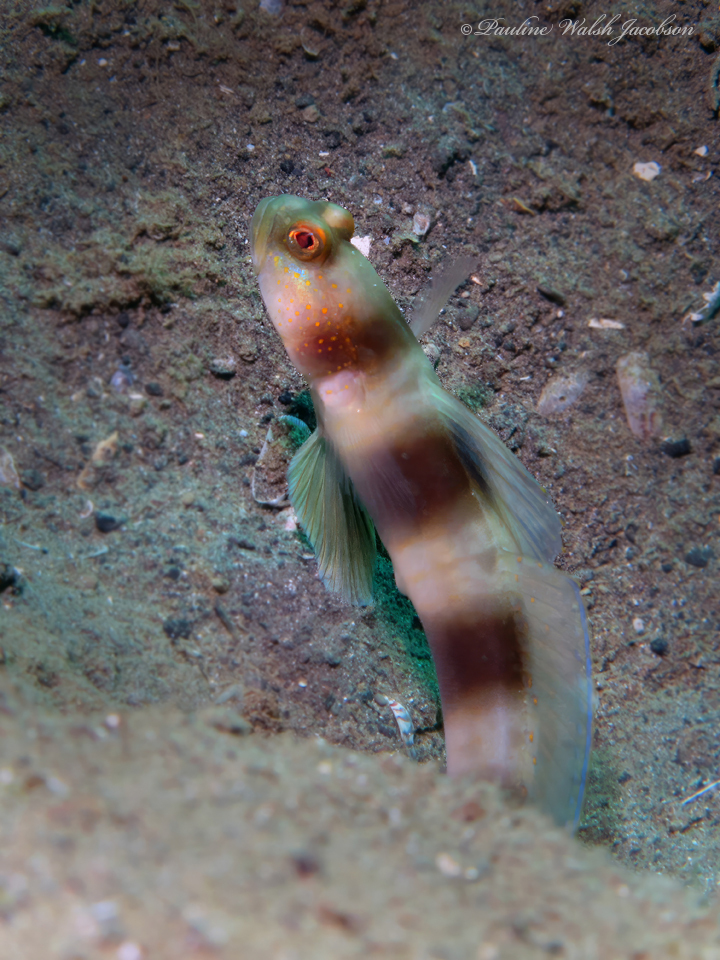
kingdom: Animalia
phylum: Chordata
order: Perciformes
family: Gobiidae
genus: Amblyeleotris
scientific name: Amblyeleotris fontanesii
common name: Giant shrimpgoby
